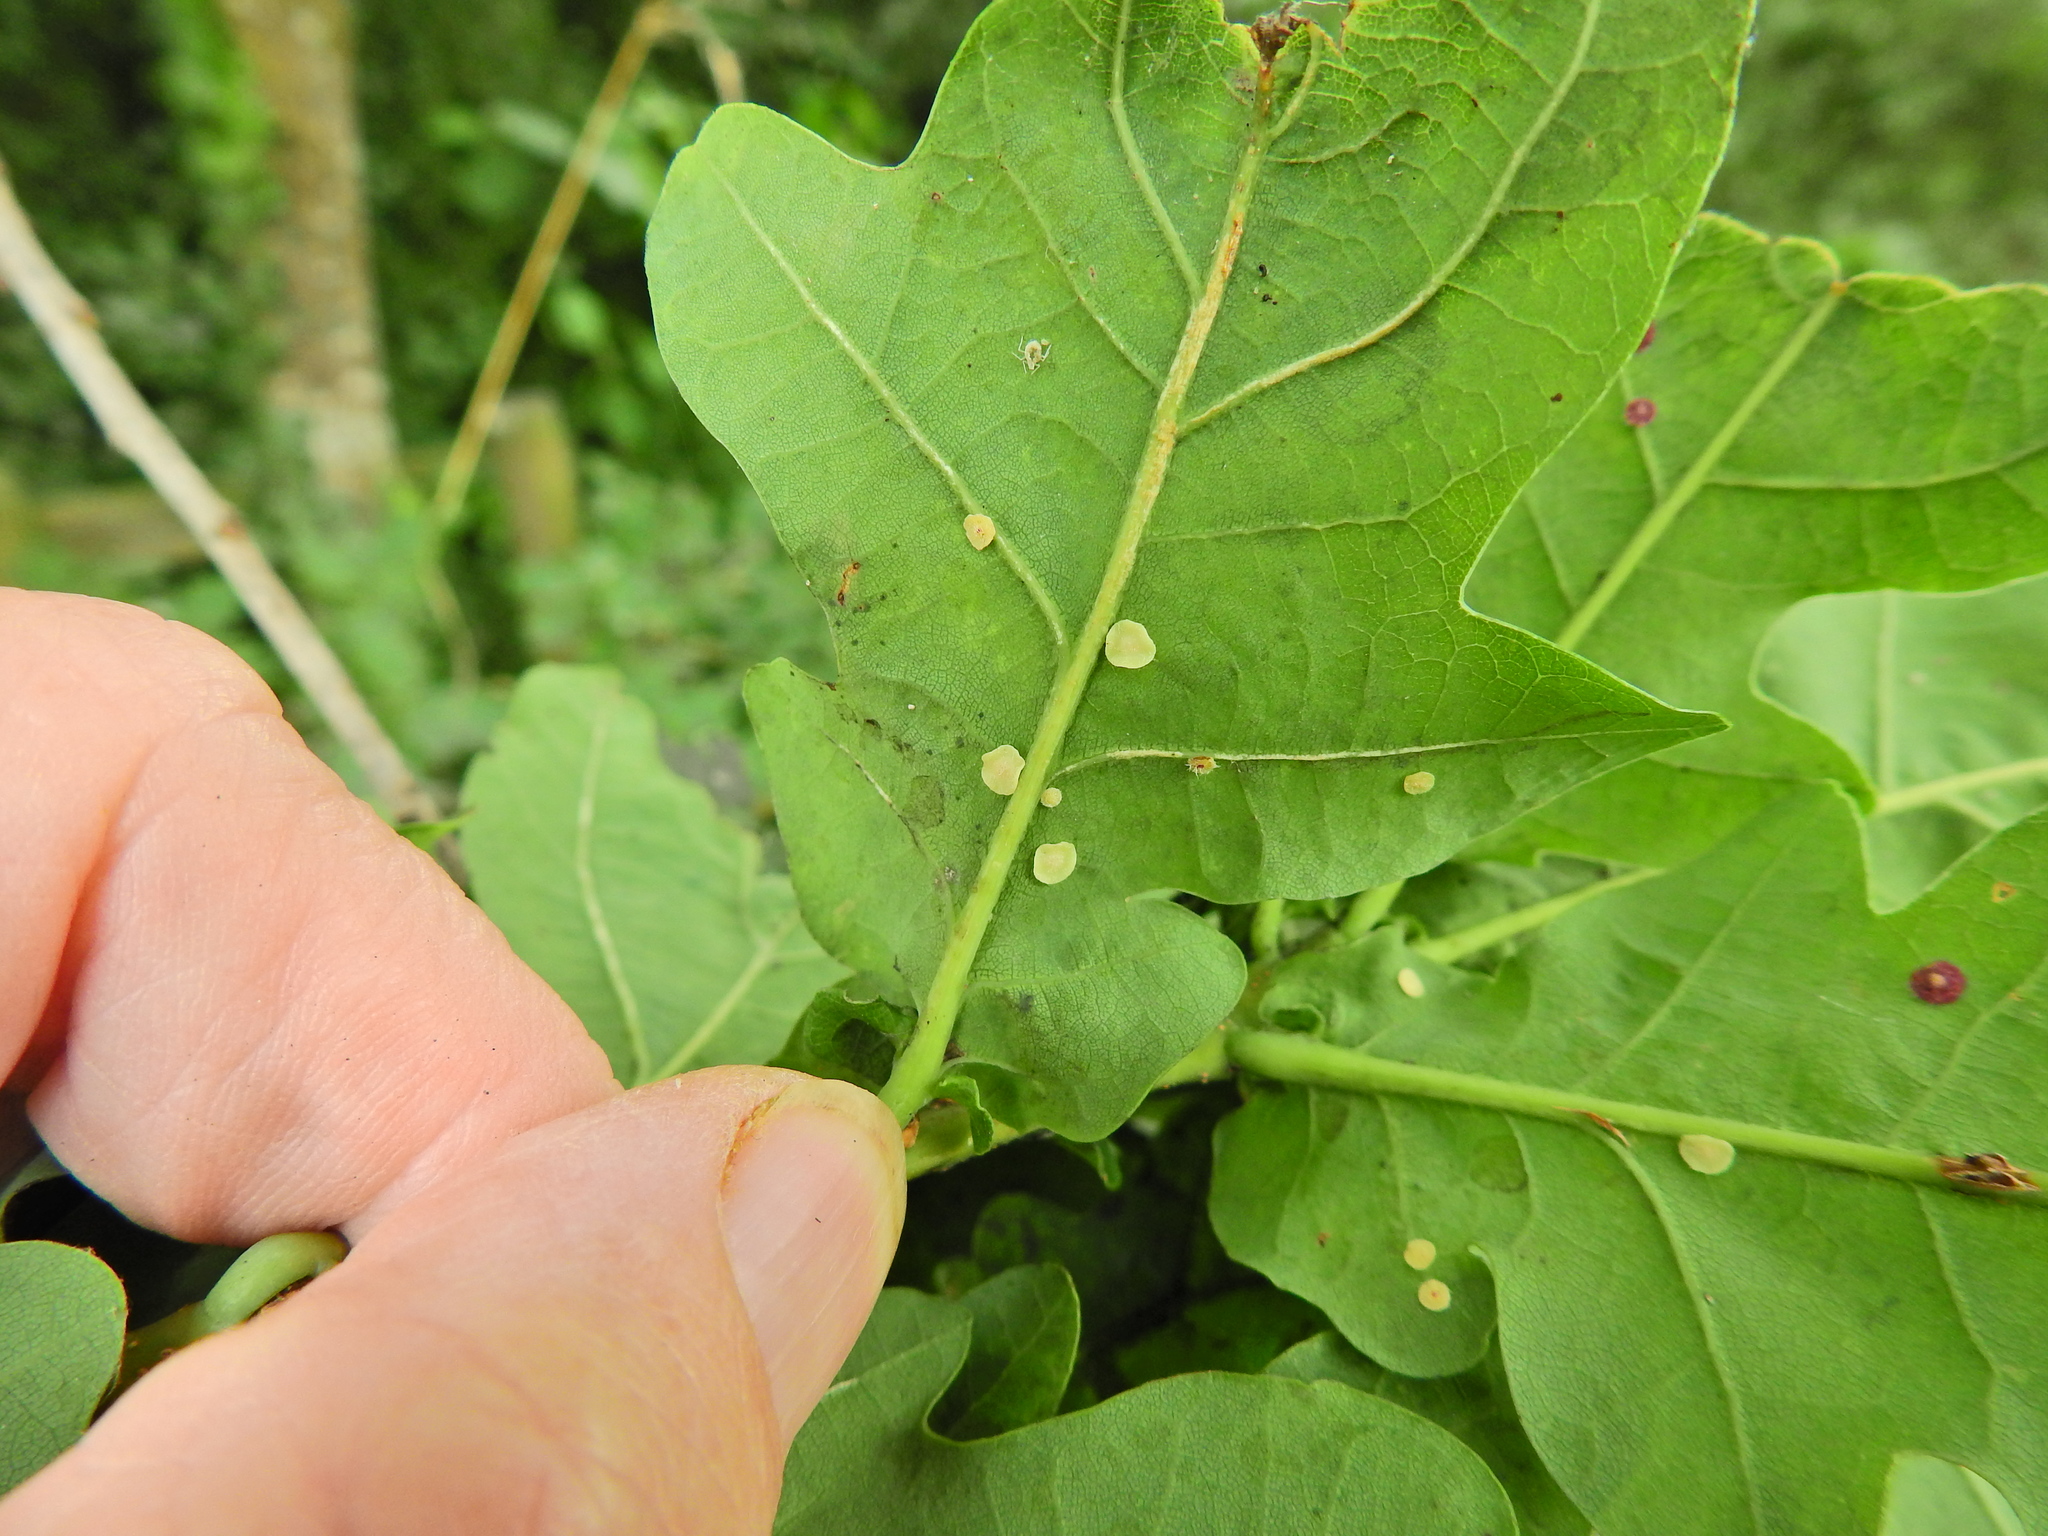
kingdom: Animalia
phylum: Arthropoda
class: Insecta
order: Hymenoptera
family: Cynipidae
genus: Neuroterus
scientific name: Neuroterus albipes
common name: Smooth spangle gall
